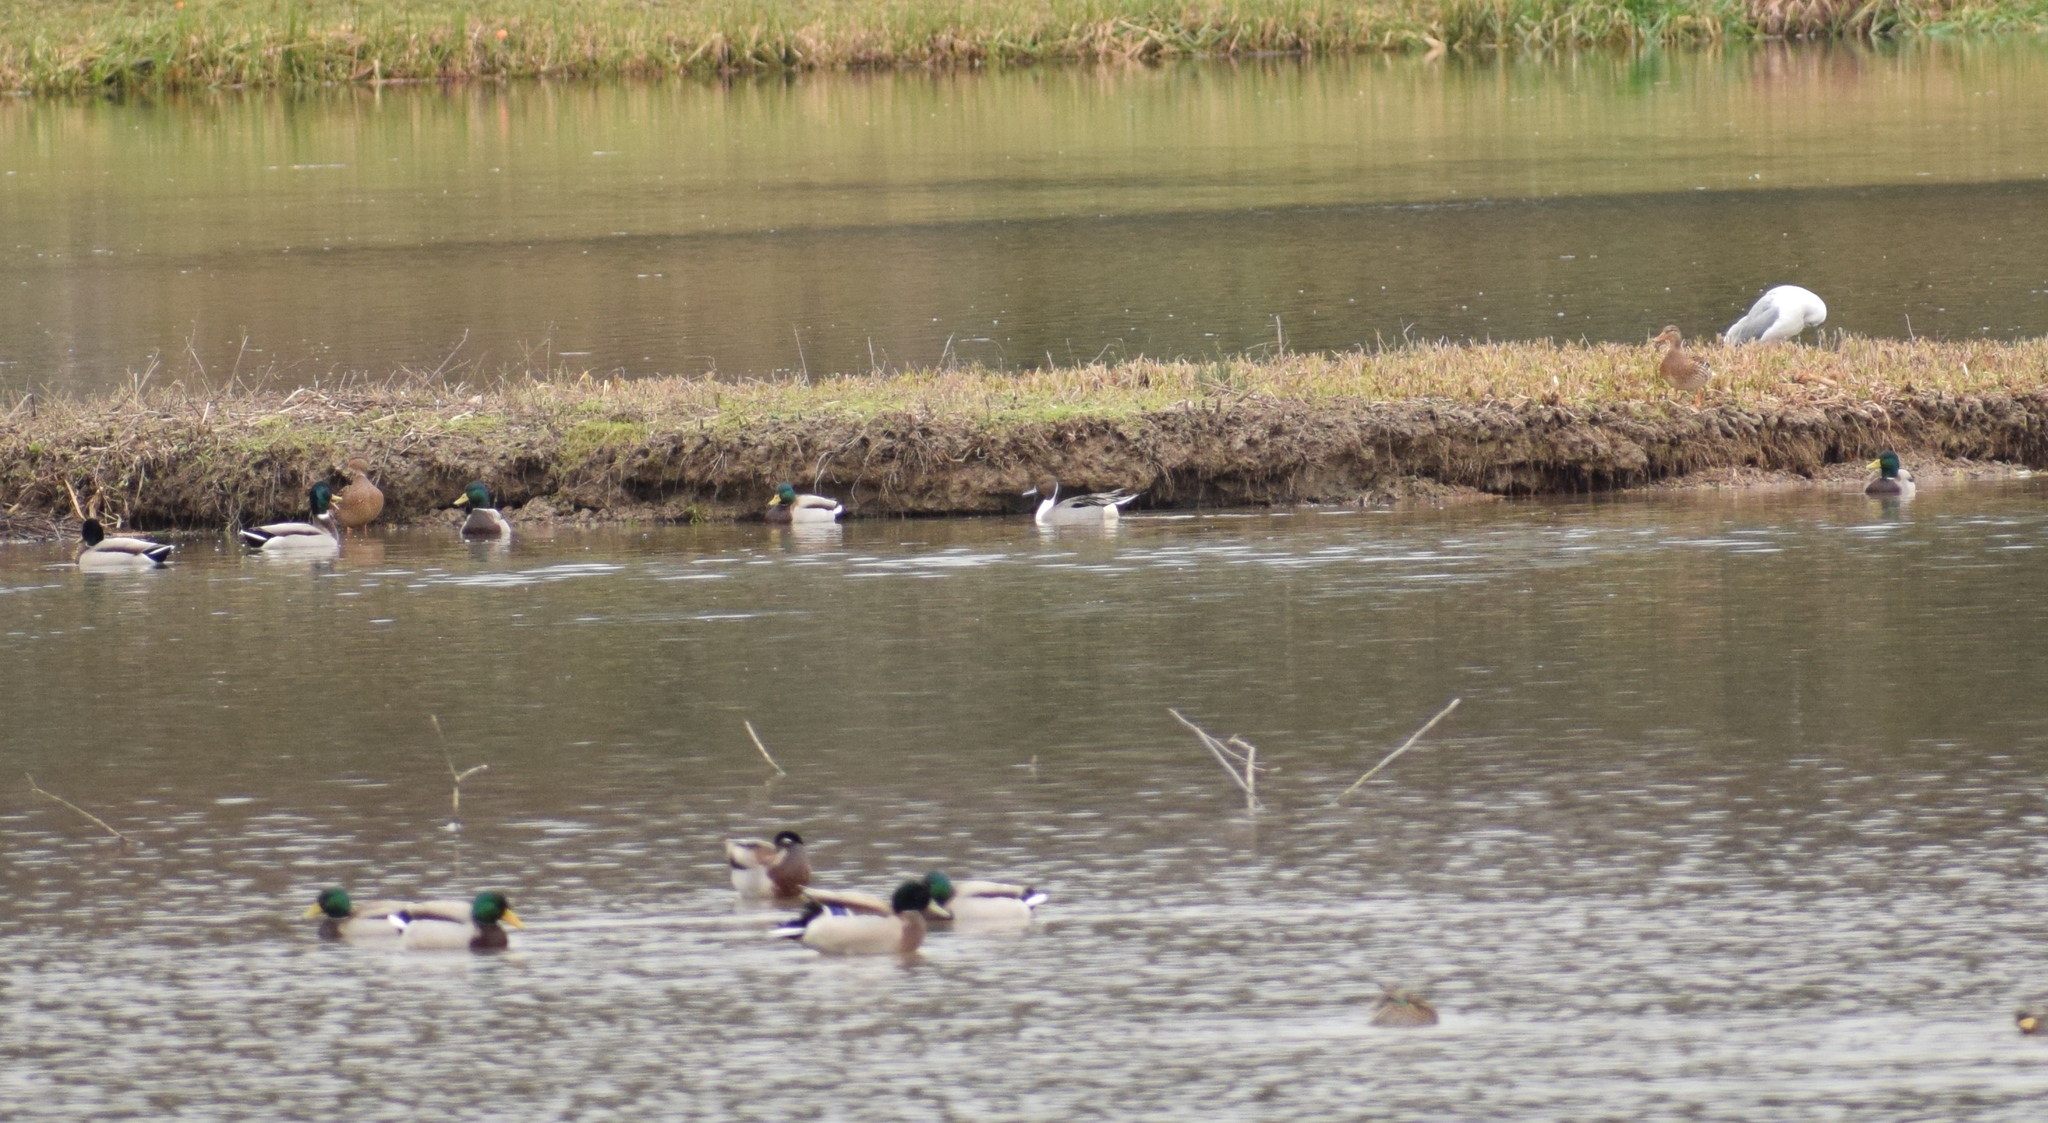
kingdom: Animalia
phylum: Chordata
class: Aves
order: Anseriformes
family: Anatidae
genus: Anas
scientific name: Anas platyrhynchos
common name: Mallard
